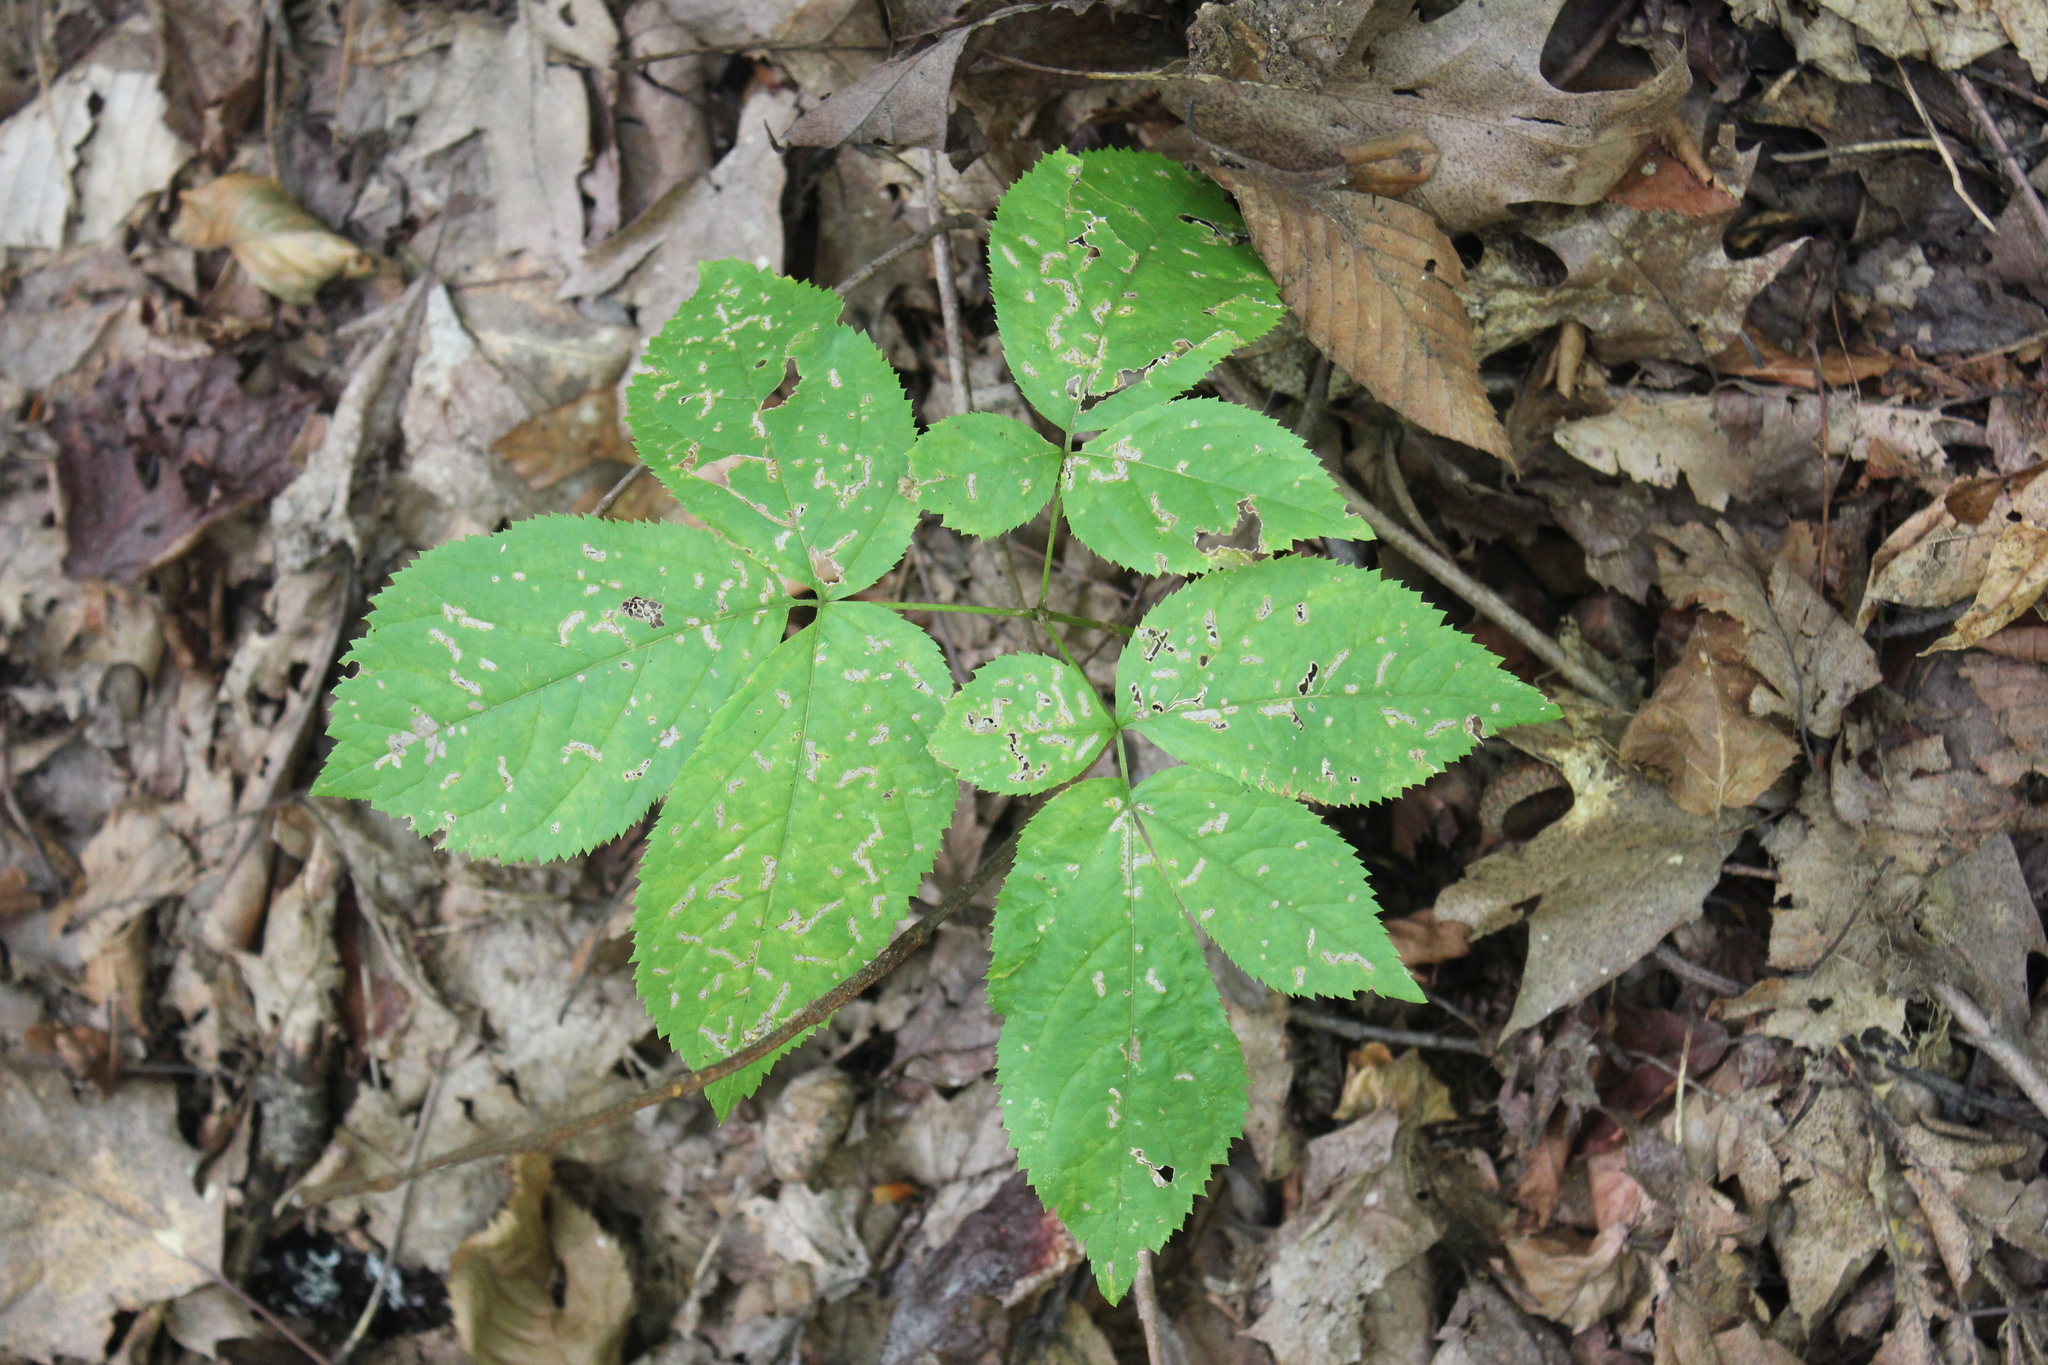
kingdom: Plantae
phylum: Tracheophyta
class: Magnoliopsida
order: Apiales
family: Araliaceae
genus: Aralia
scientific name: Aralia nudicaulis
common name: Wild sarsaparilla
